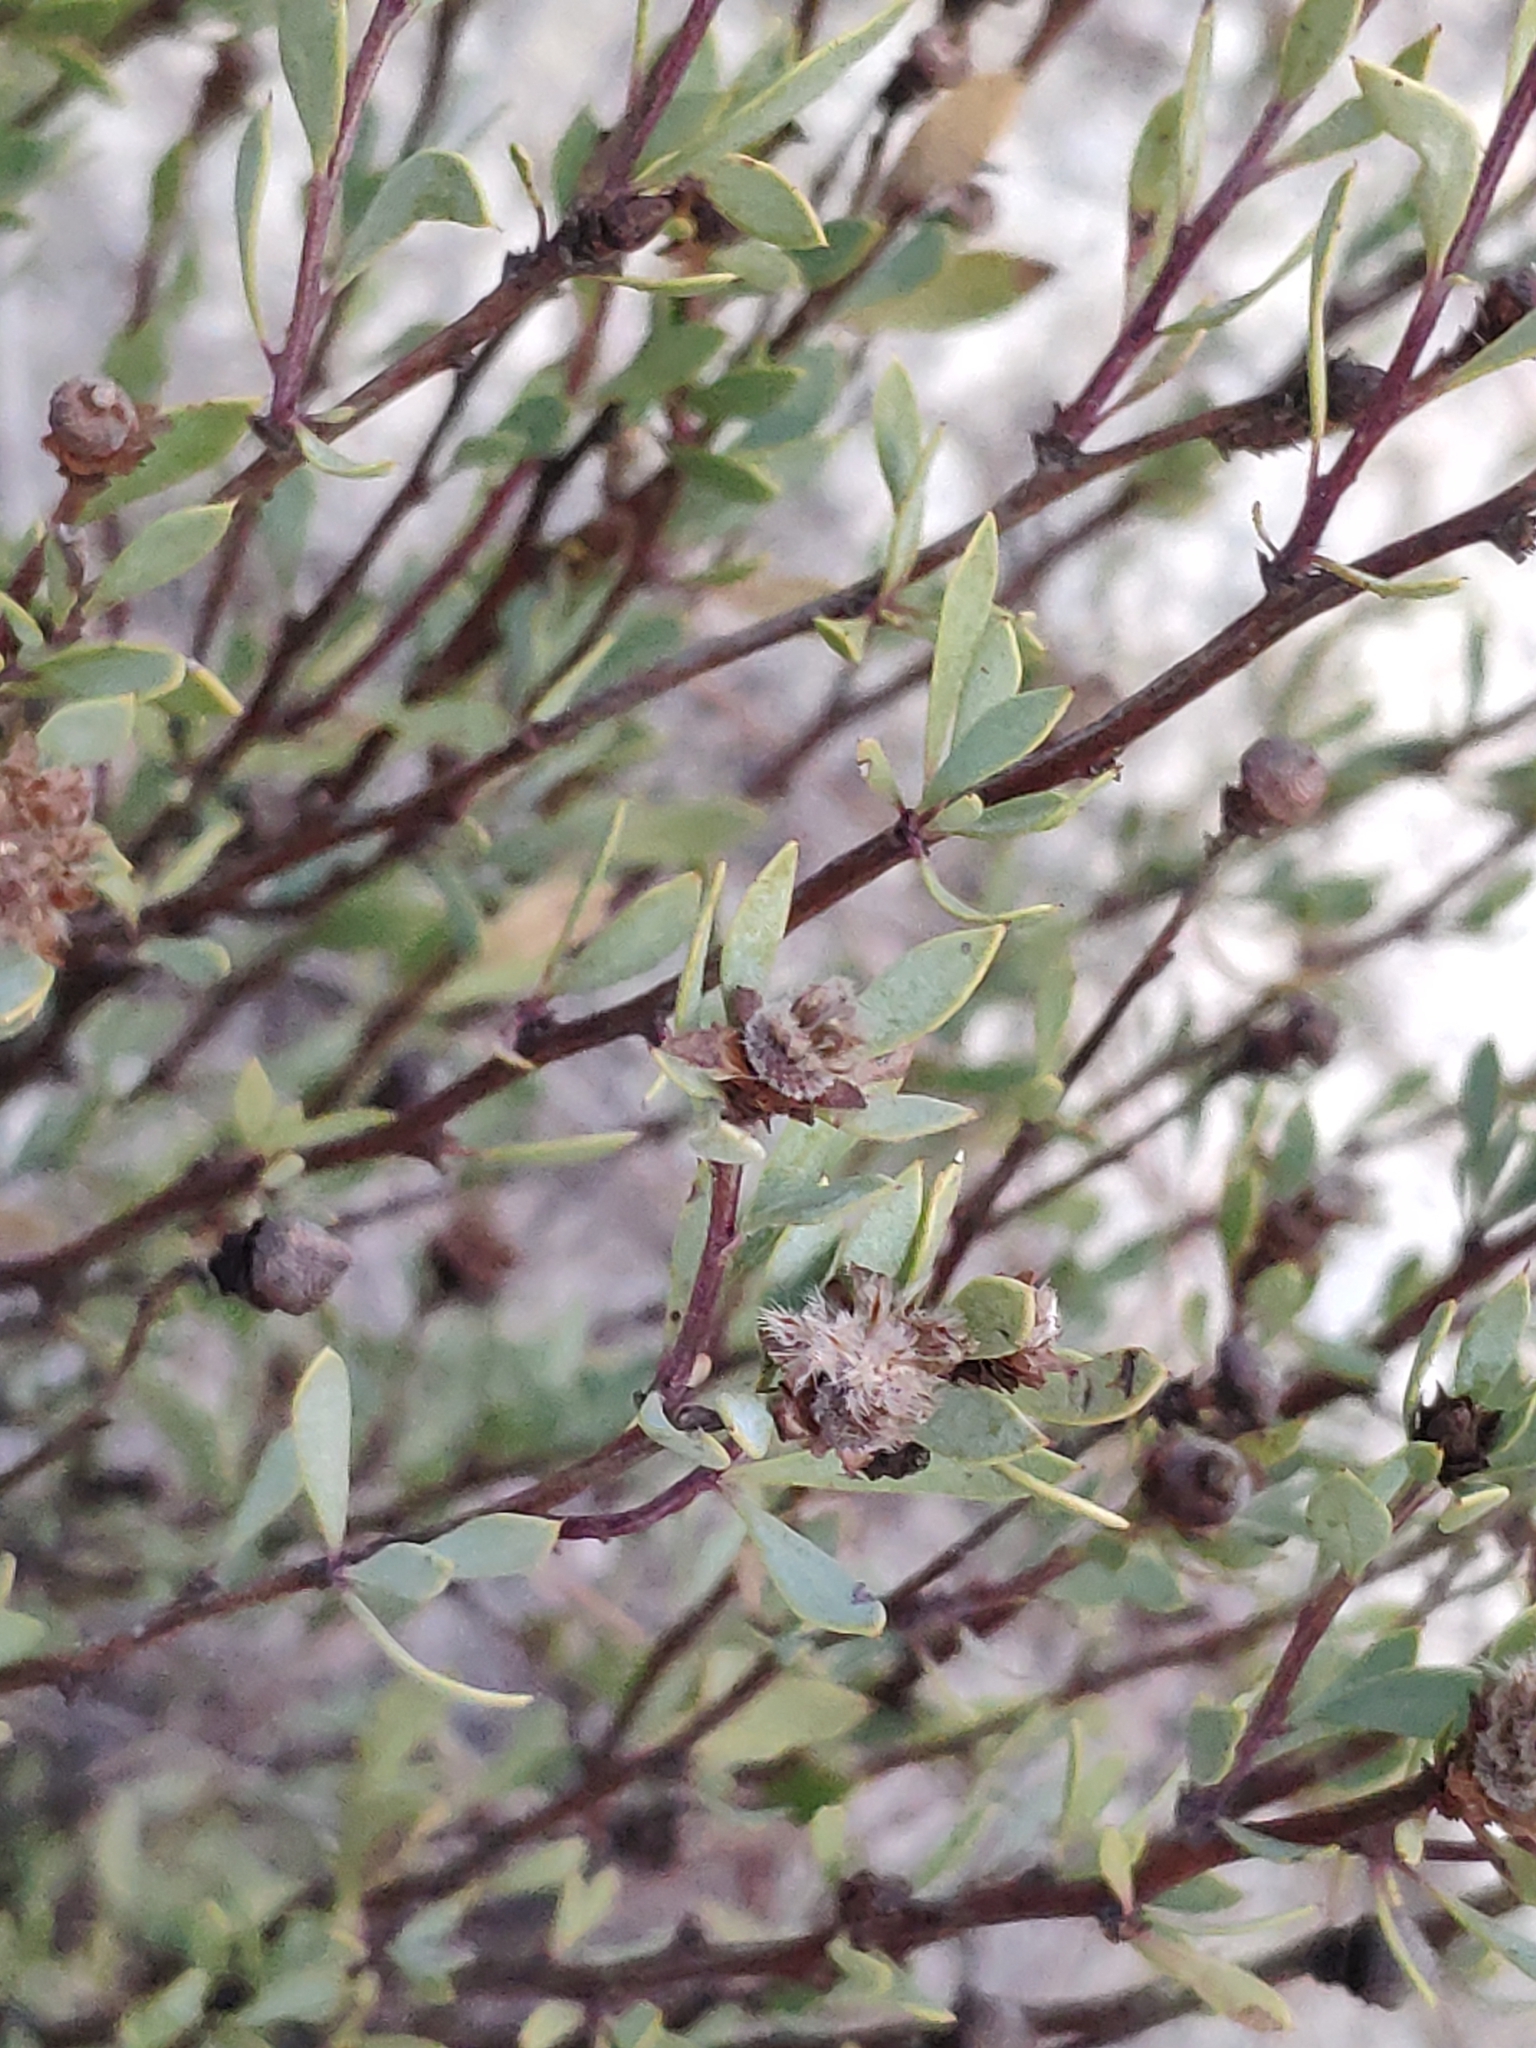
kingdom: Plantae
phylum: Tracheophyta
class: Magnoliopsida
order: Lamiales
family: Plantaginaceae
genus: Globularia
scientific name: Globularia alypum
